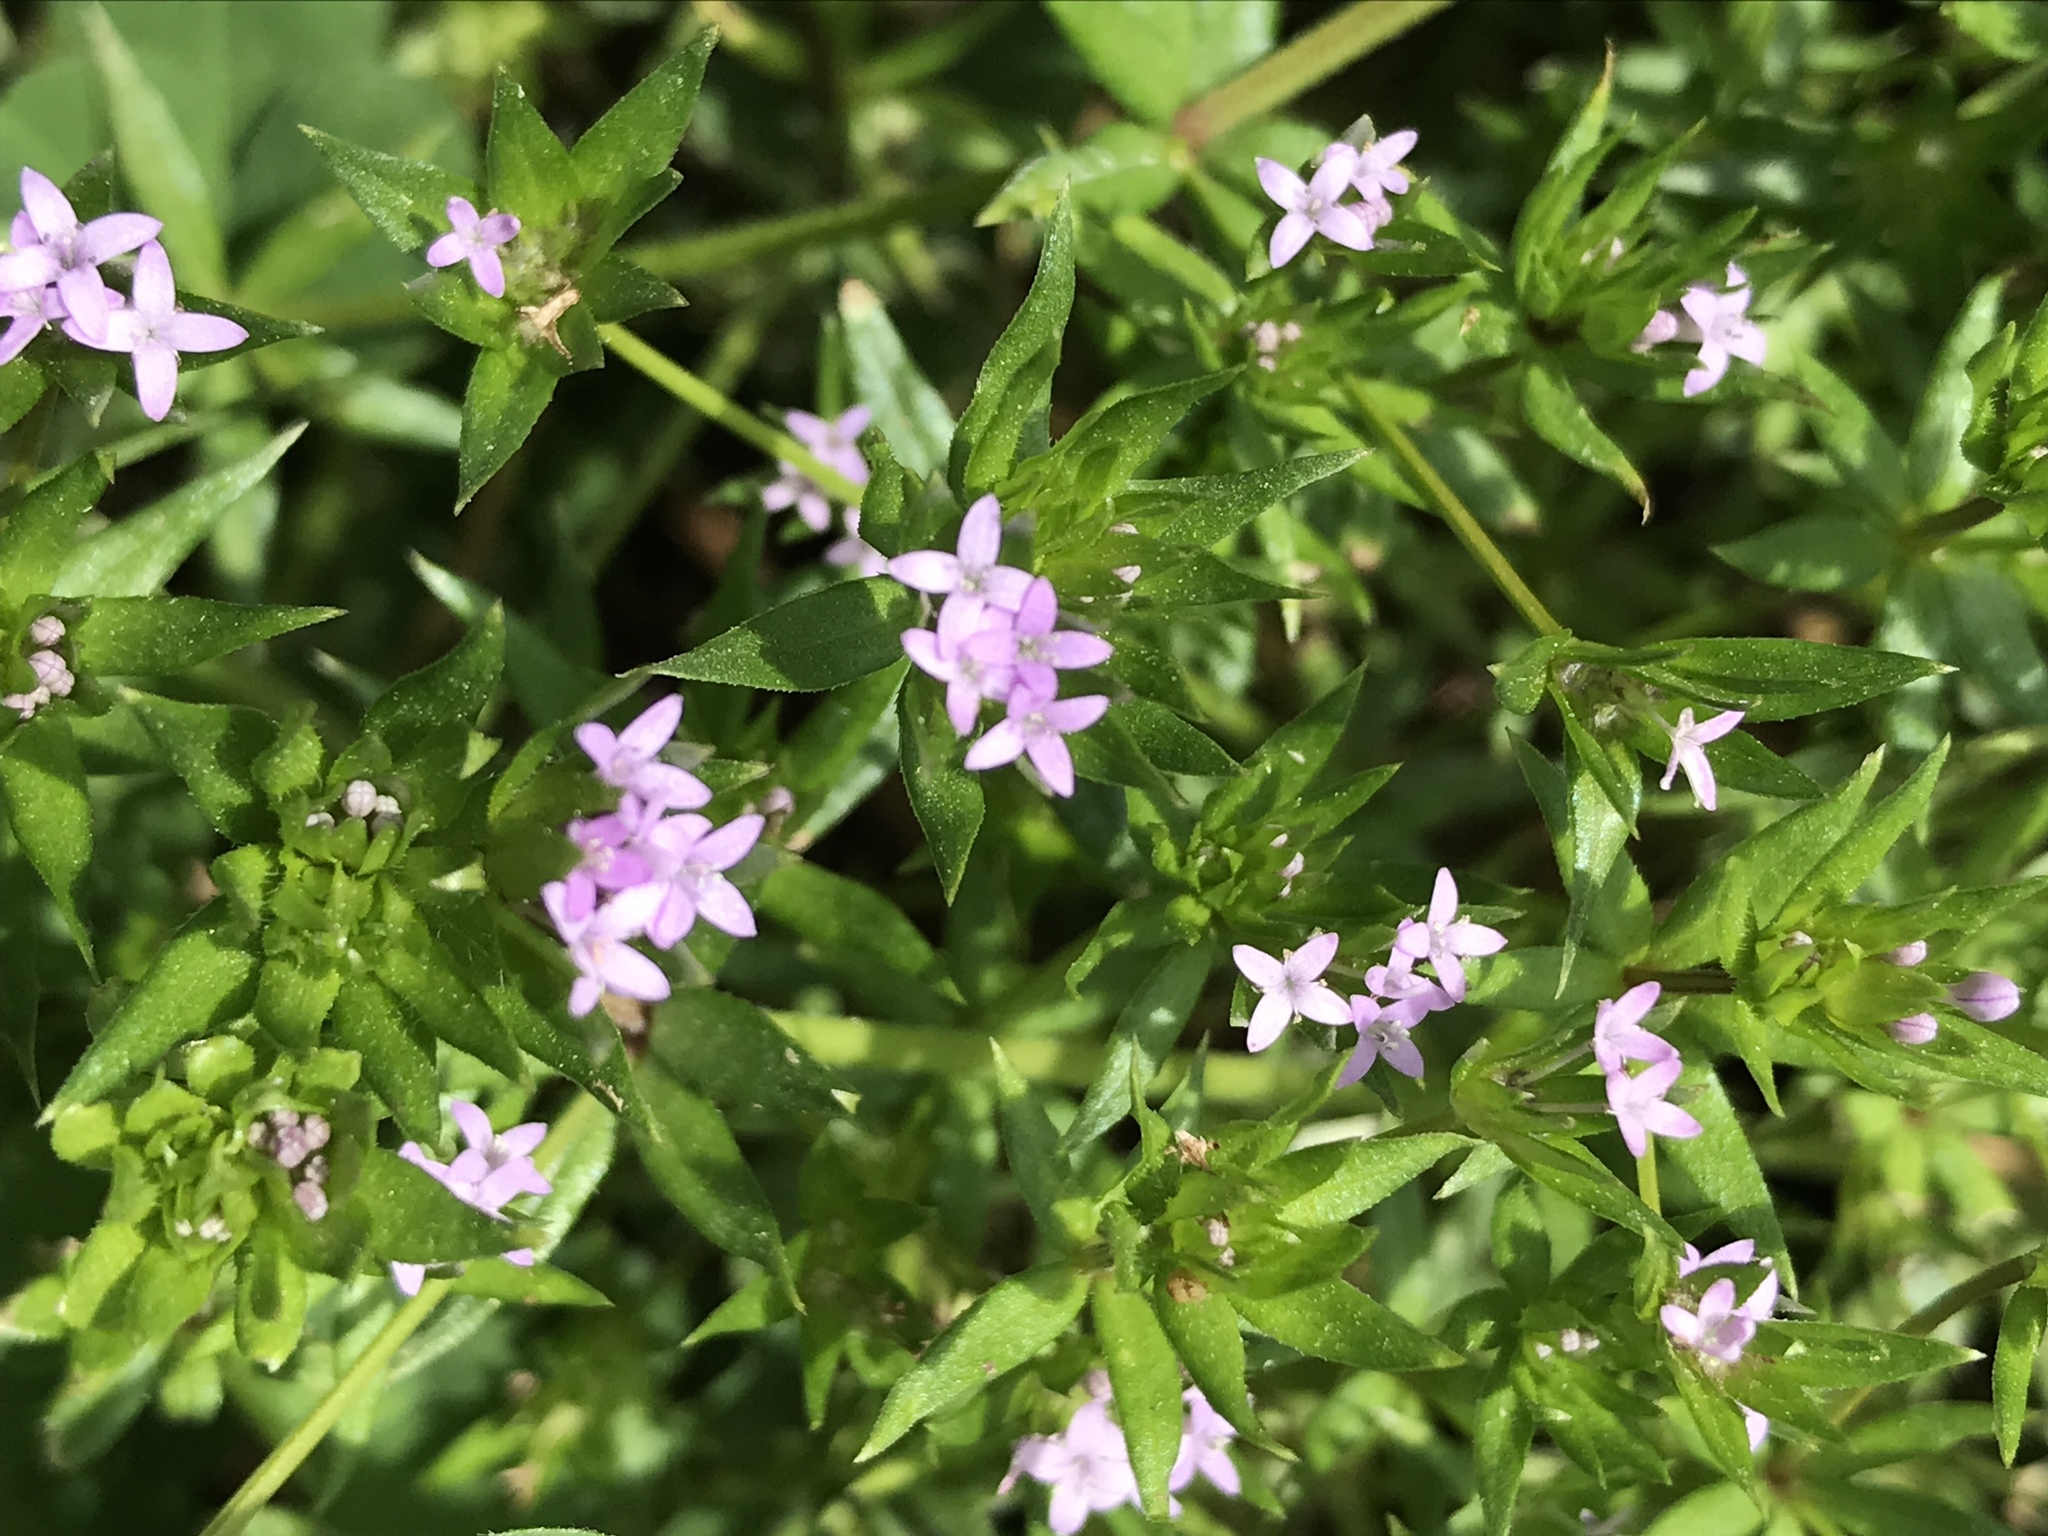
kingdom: Plantae
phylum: Tracheophyta
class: Magnoliopsida
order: Gentianales
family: Rubiaceae
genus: Sherardia
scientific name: Sherardia arvensis
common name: Field madder
